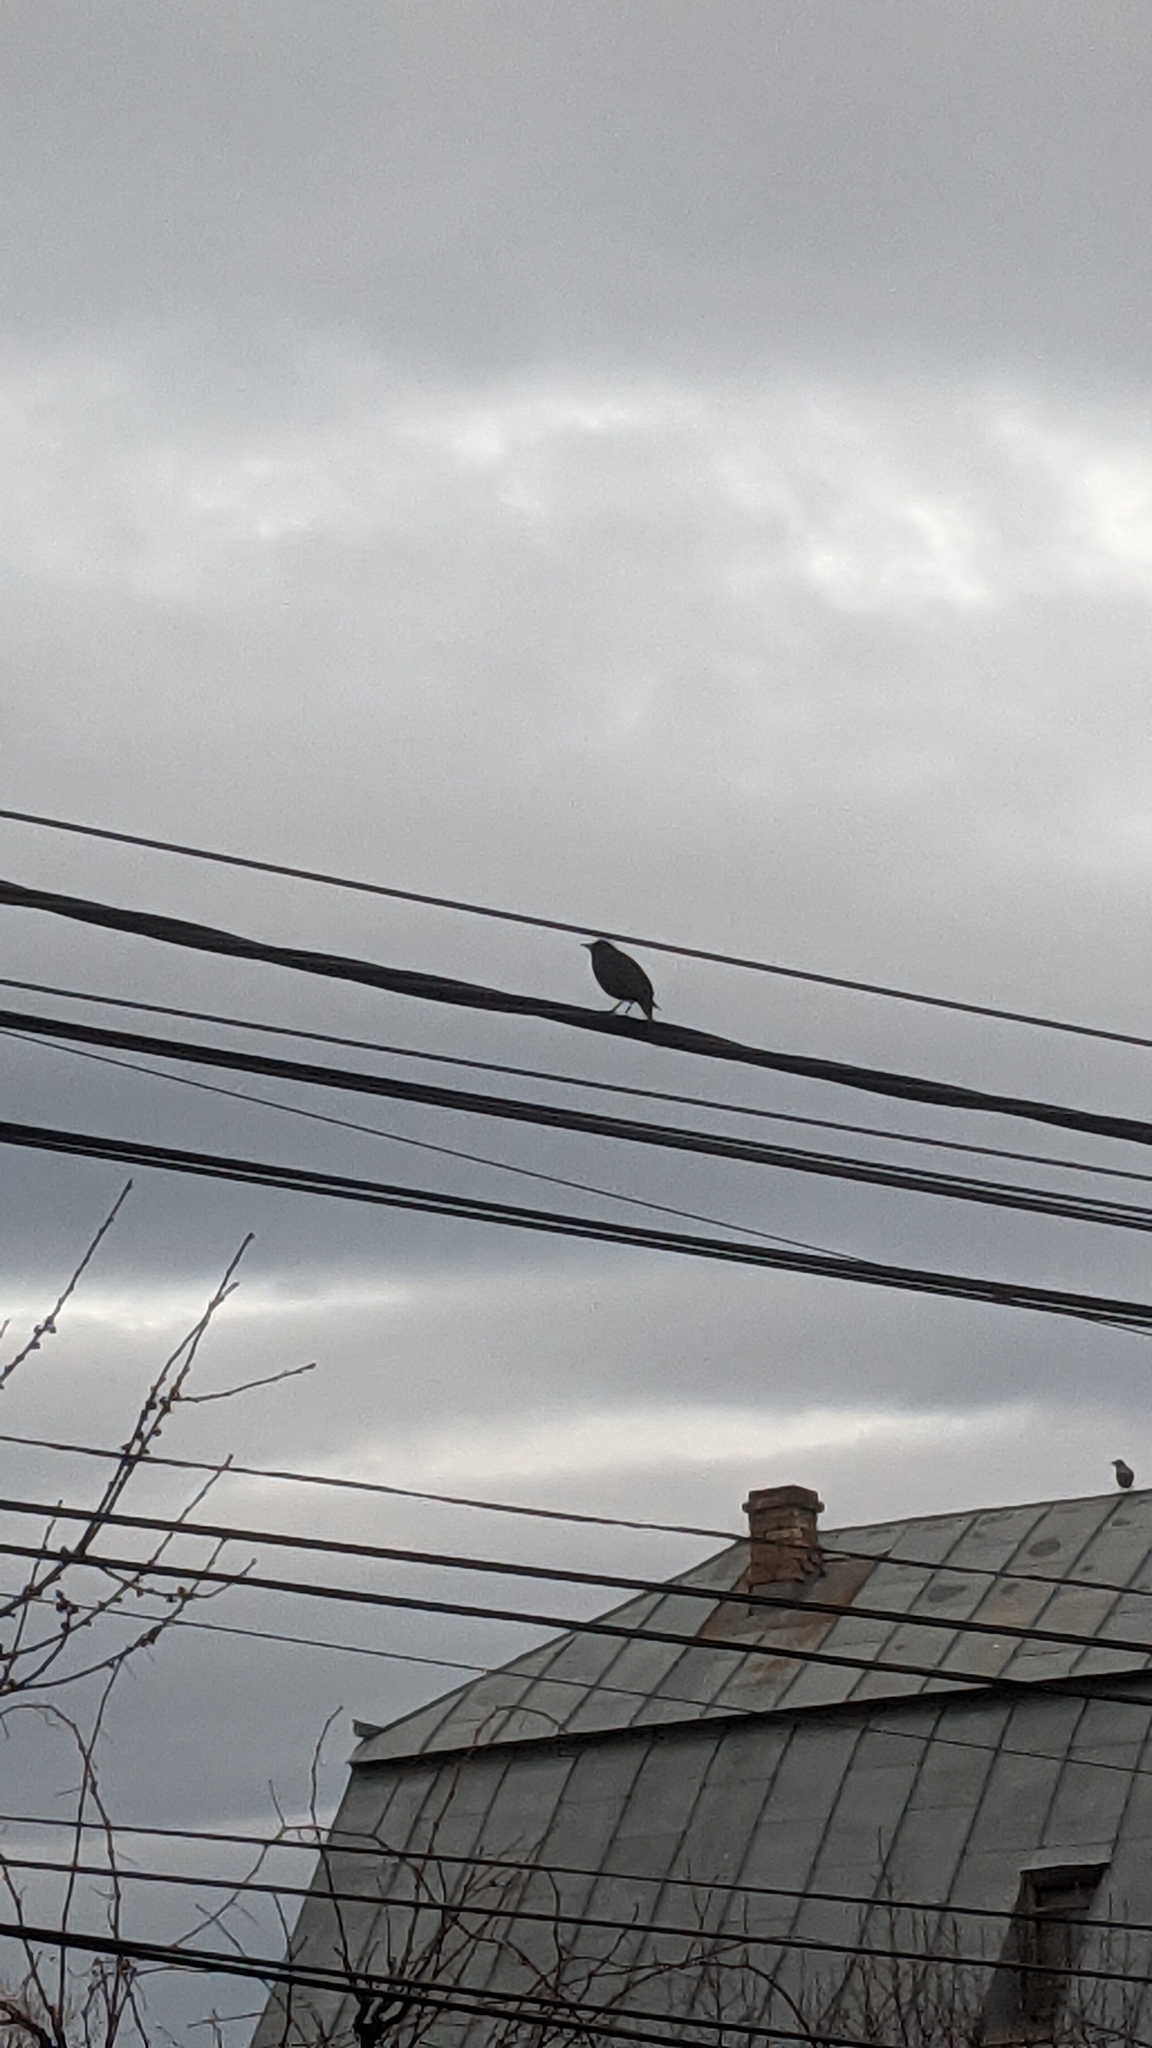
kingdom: Animalia
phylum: Chordata
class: Aves
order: Passeriformes
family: Sturnidae
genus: Sturnus
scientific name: Sturnus vulgaris
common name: Common starling
